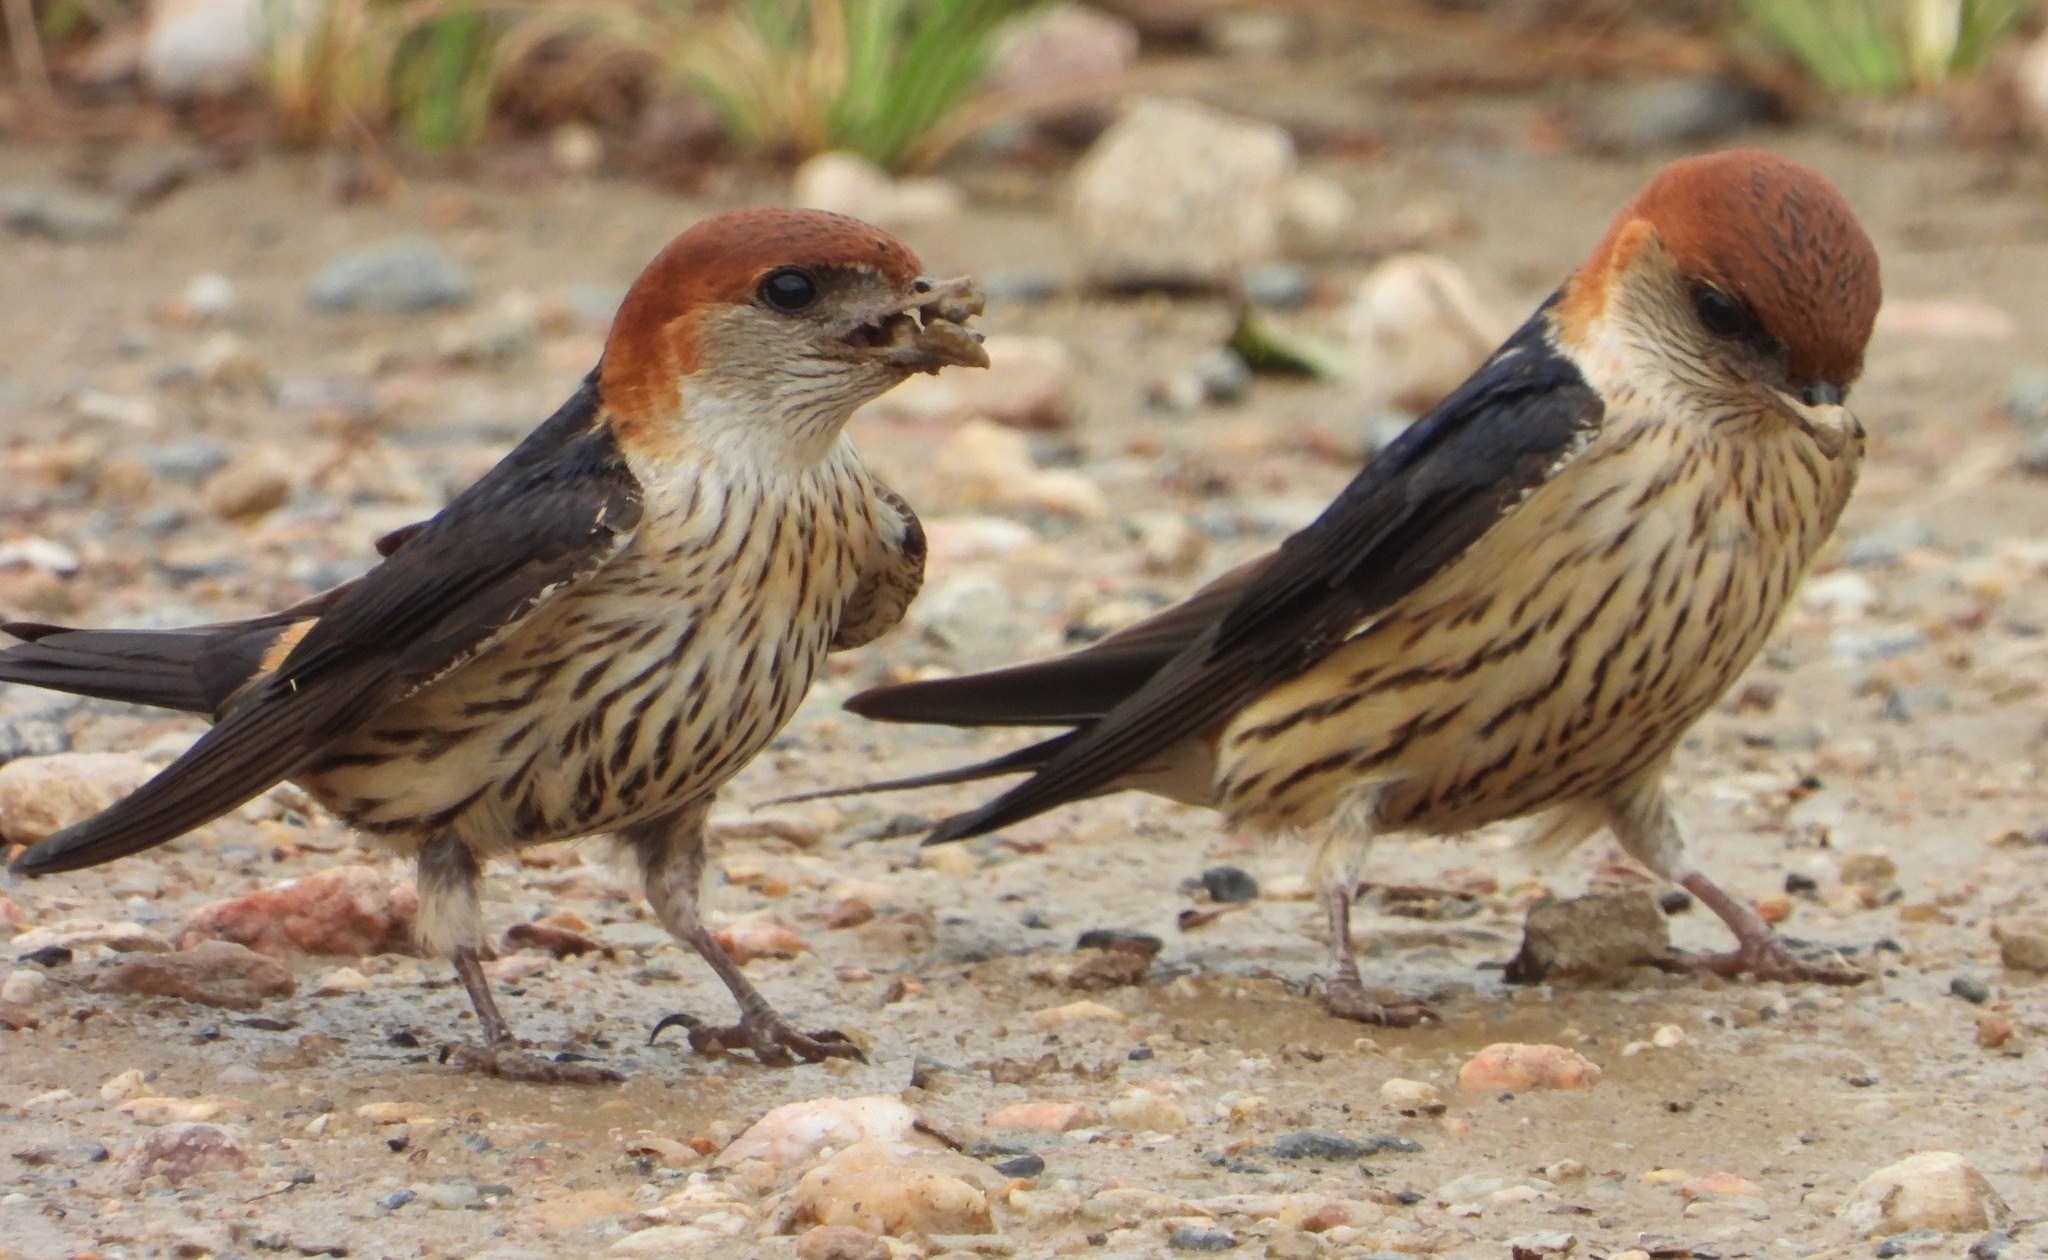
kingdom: Animalia
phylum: Chordata
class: Aves
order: Passeriformes
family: Hirundinidae
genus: Cecropis
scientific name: Cecropis cucullata
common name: Greater striped-swallow
